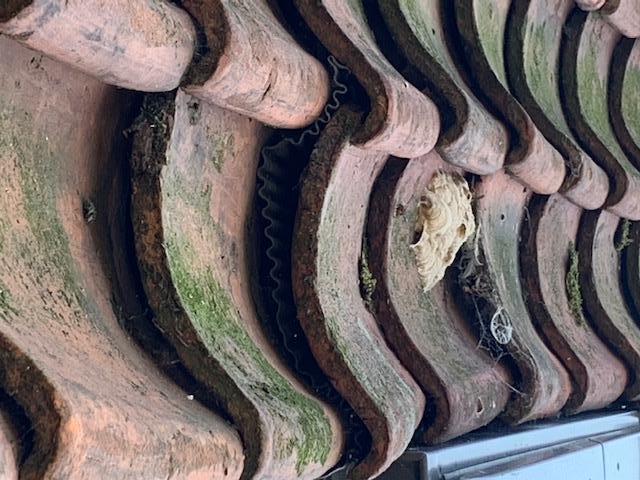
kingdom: Animalia
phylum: Arthropoda
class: Insecta
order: Hymenoptera
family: Vespidae
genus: Vespa
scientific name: Vespa velutina
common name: Asian hornet
